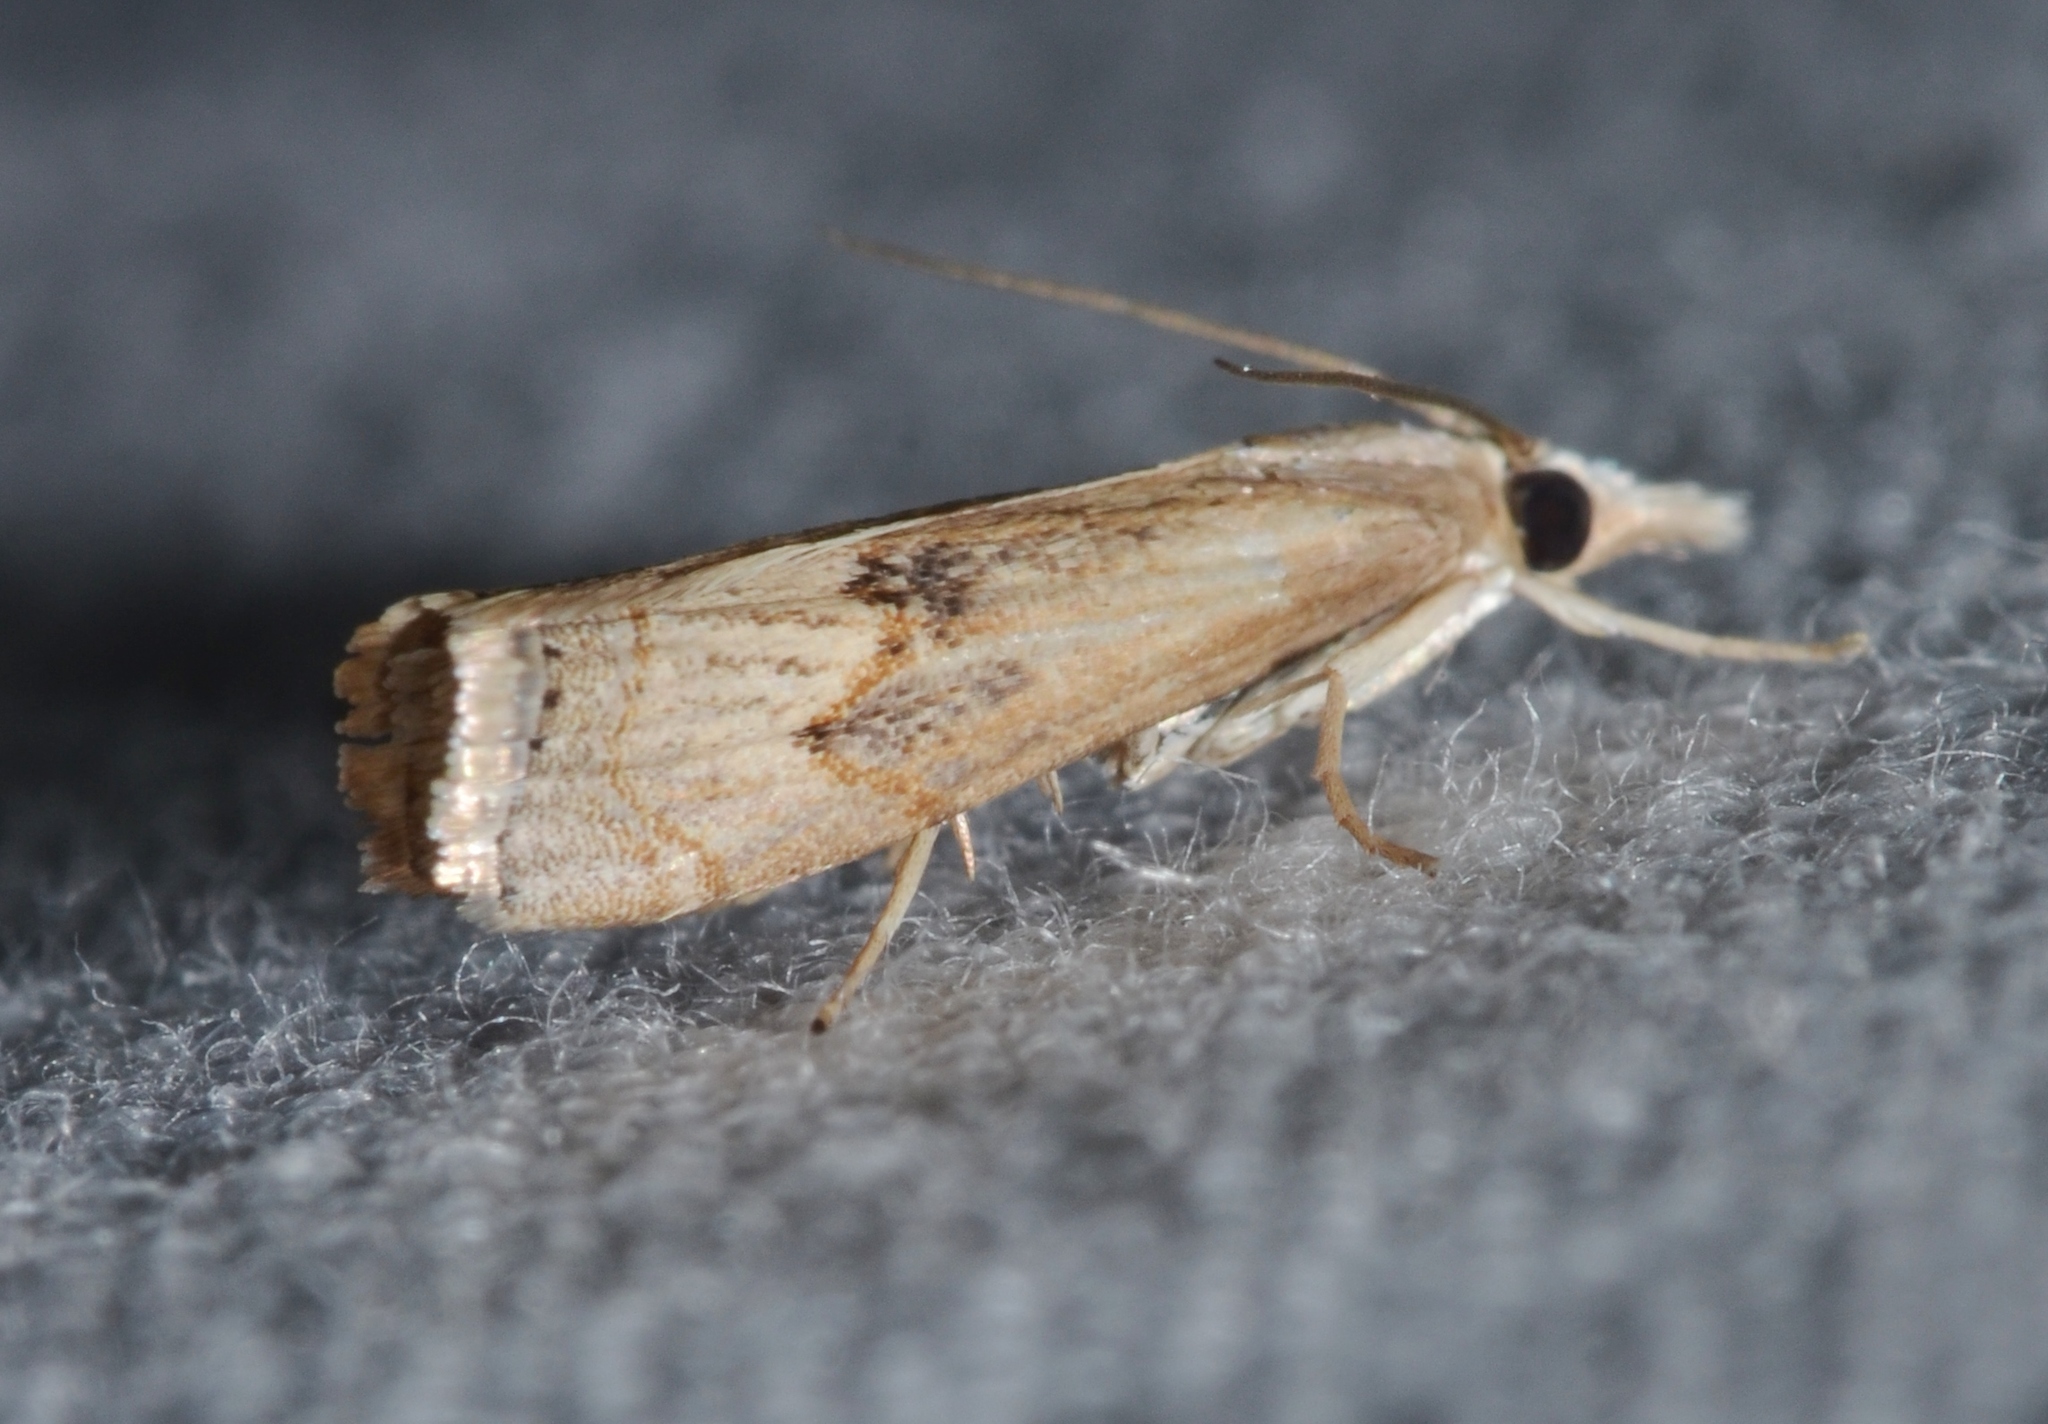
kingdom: Animalia
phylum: Arthropoda
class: Insecta
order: Lepidoptera
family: Crambidae
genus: Parapediasia
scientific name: Parapediasia teterellus
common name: Bluegrass webworm moth
